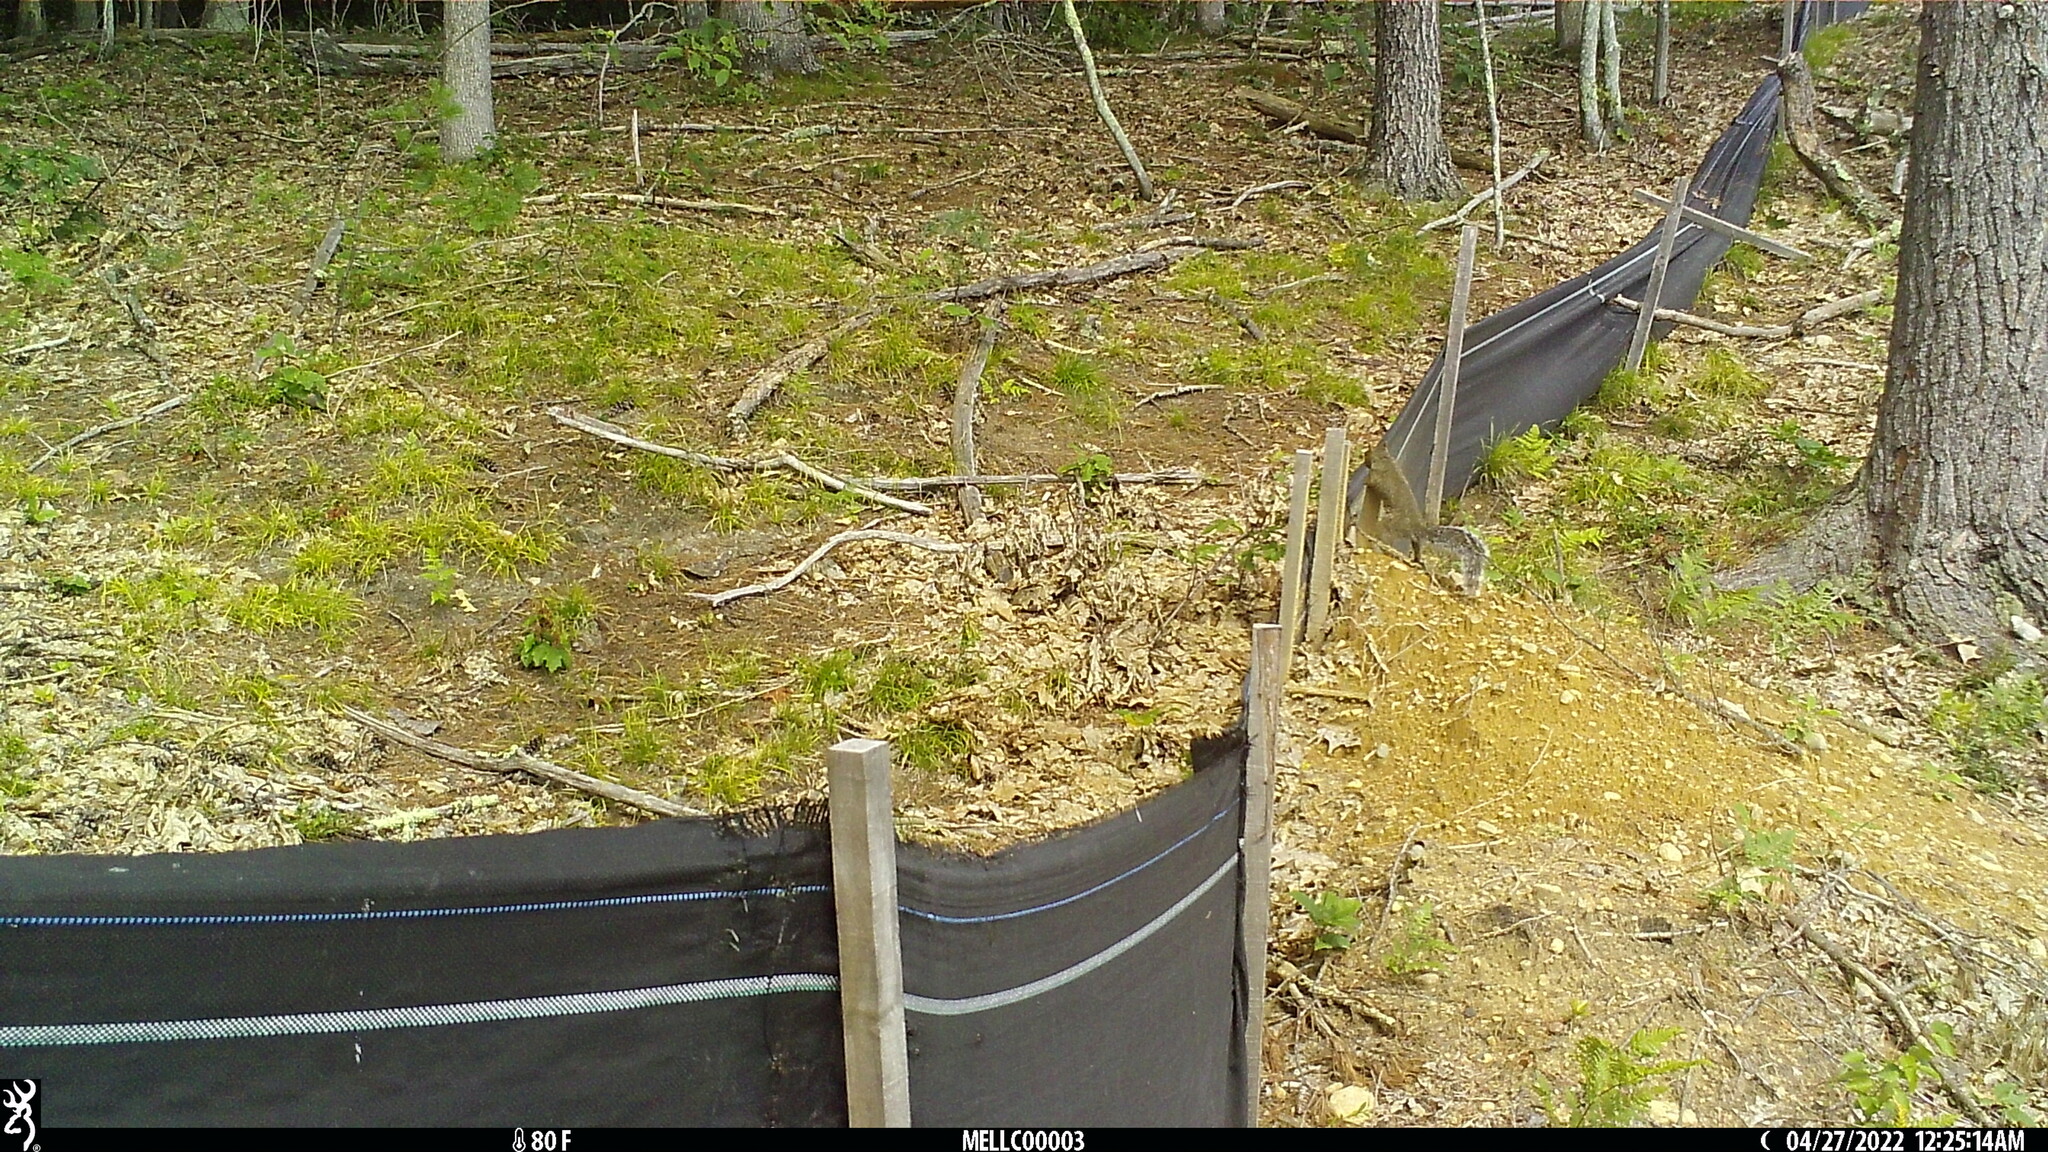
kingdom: Animalia
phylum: Chordata
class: Mammalia
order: Rodentia
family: Sciuridae
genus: Sciurus
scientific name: Sciurus carolinensis
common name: Eastern gray squirrel
